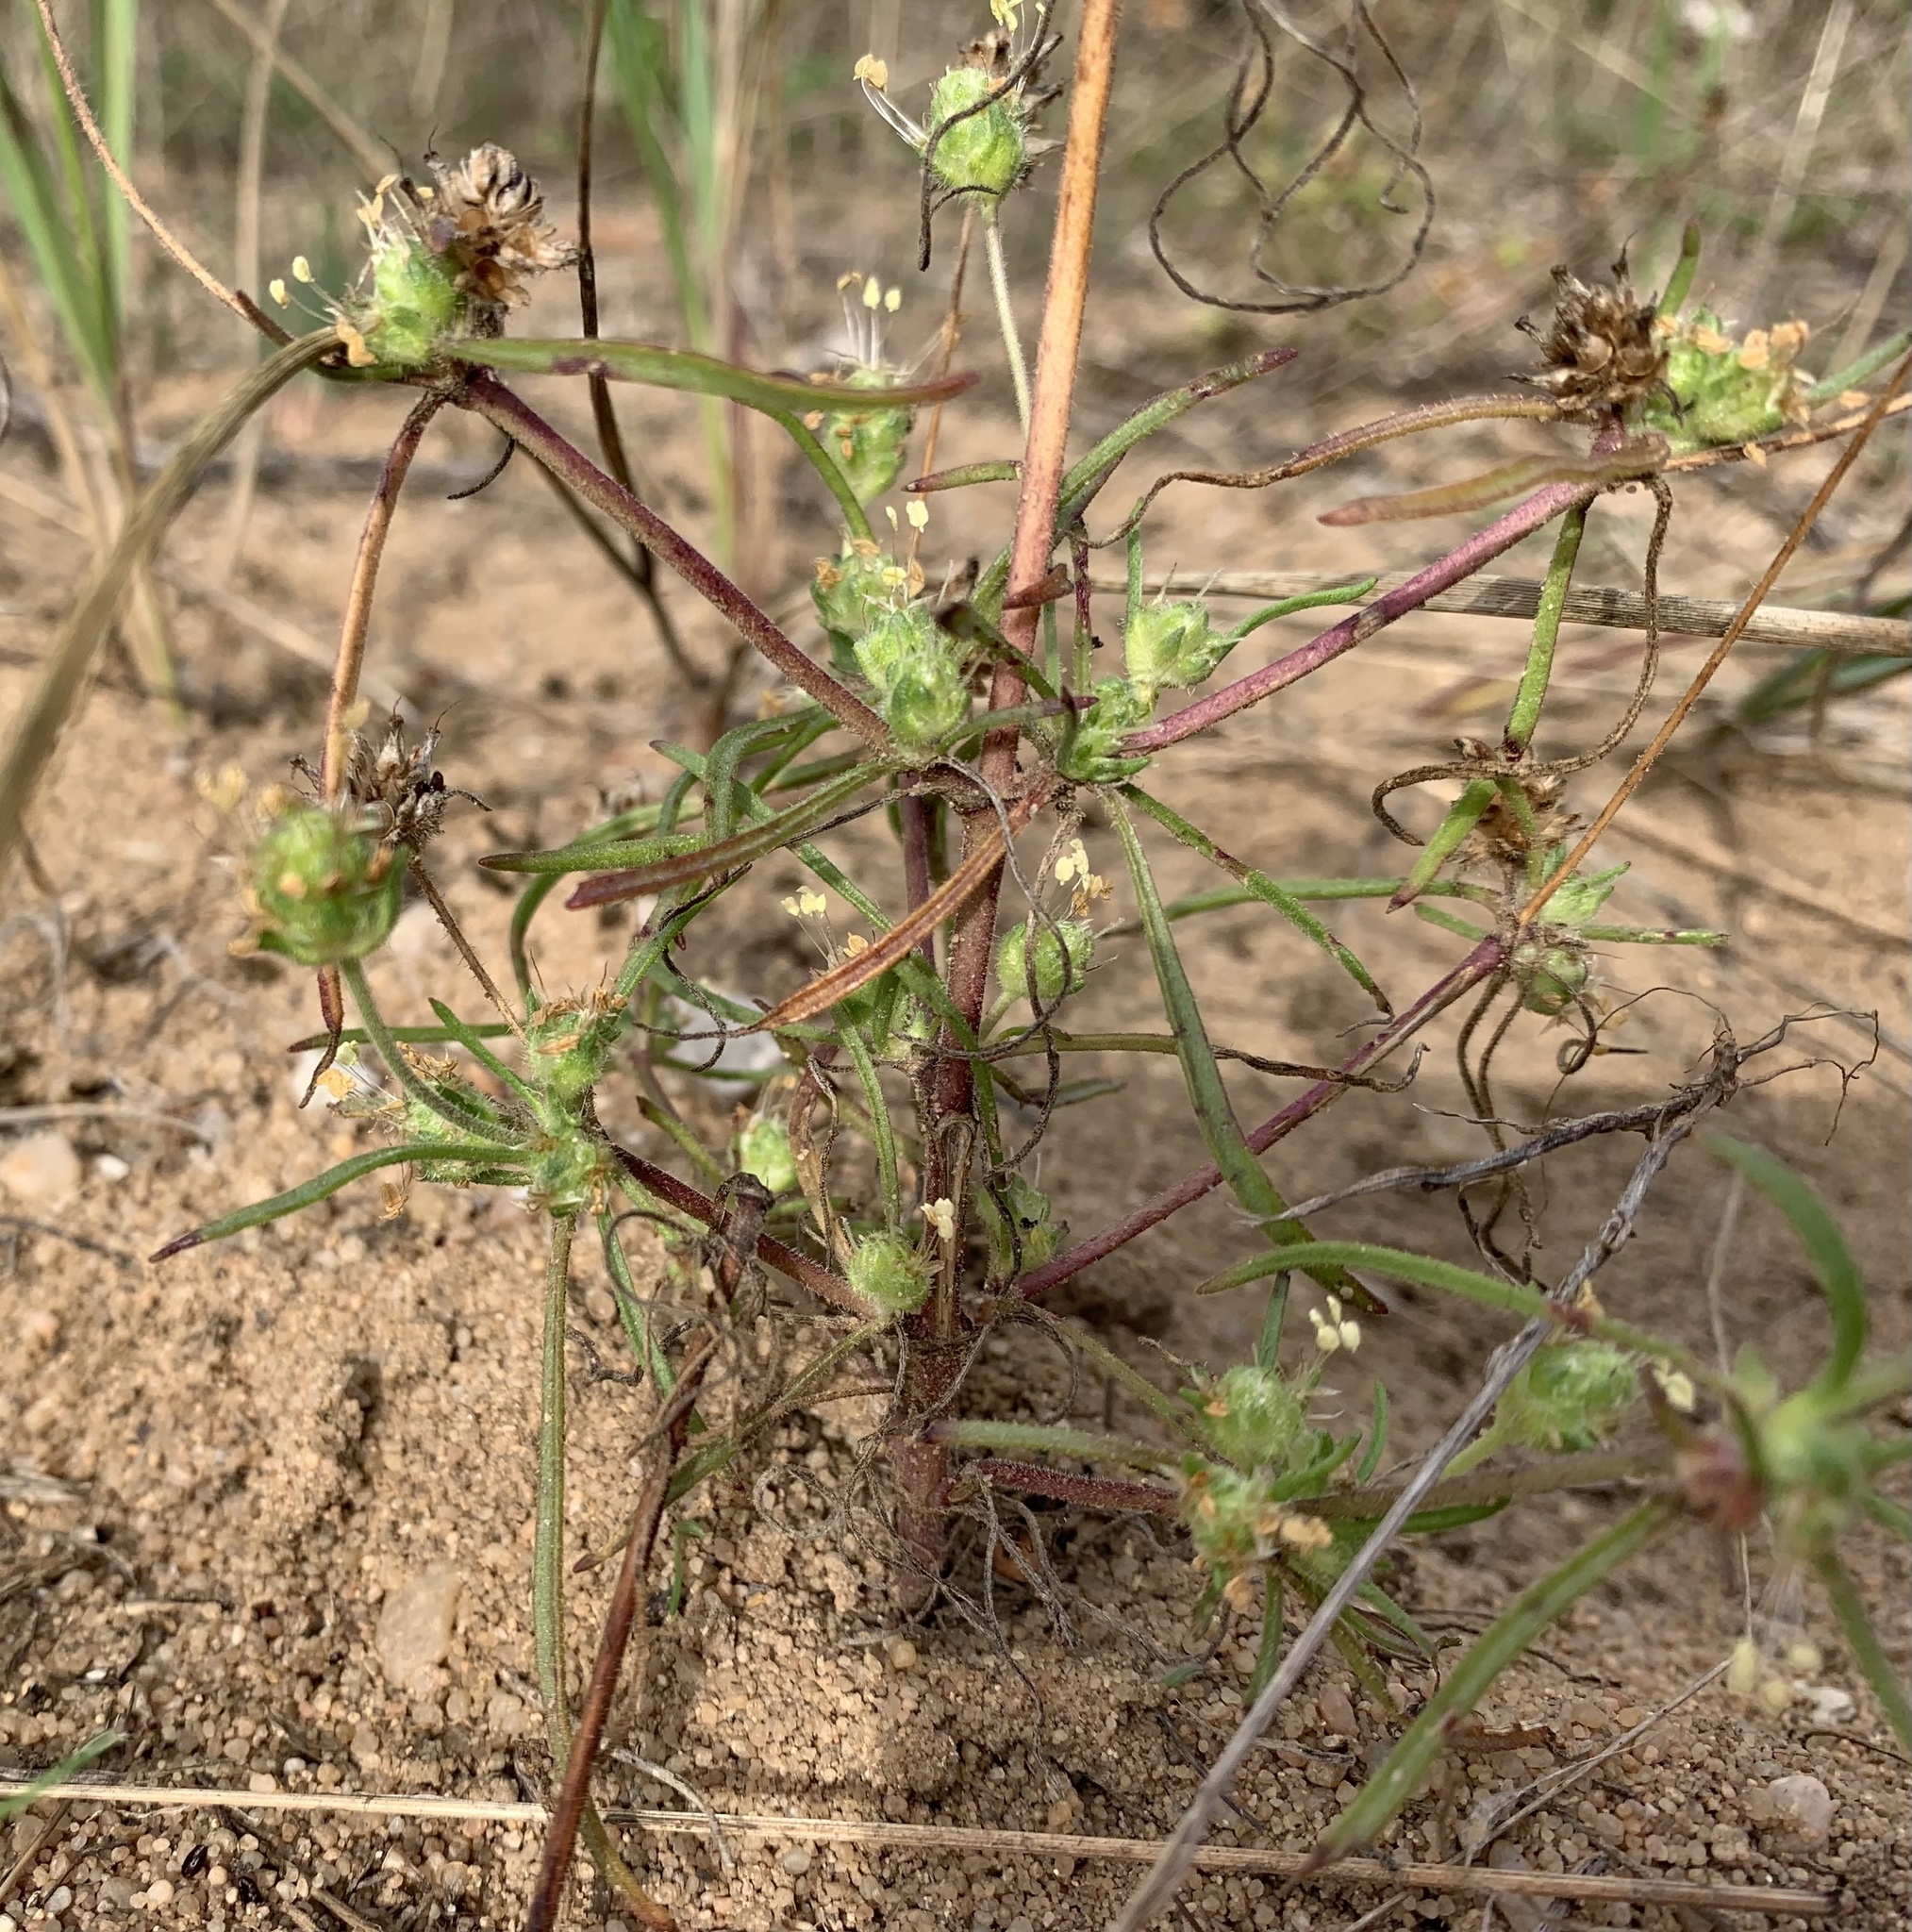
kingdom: Plantae
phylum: Tracheophyta
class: Magnoliopsida
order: Lamiales
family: Plantaginaceae
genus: Plantago
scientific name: Plantago arenaria
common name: Branched plantain
